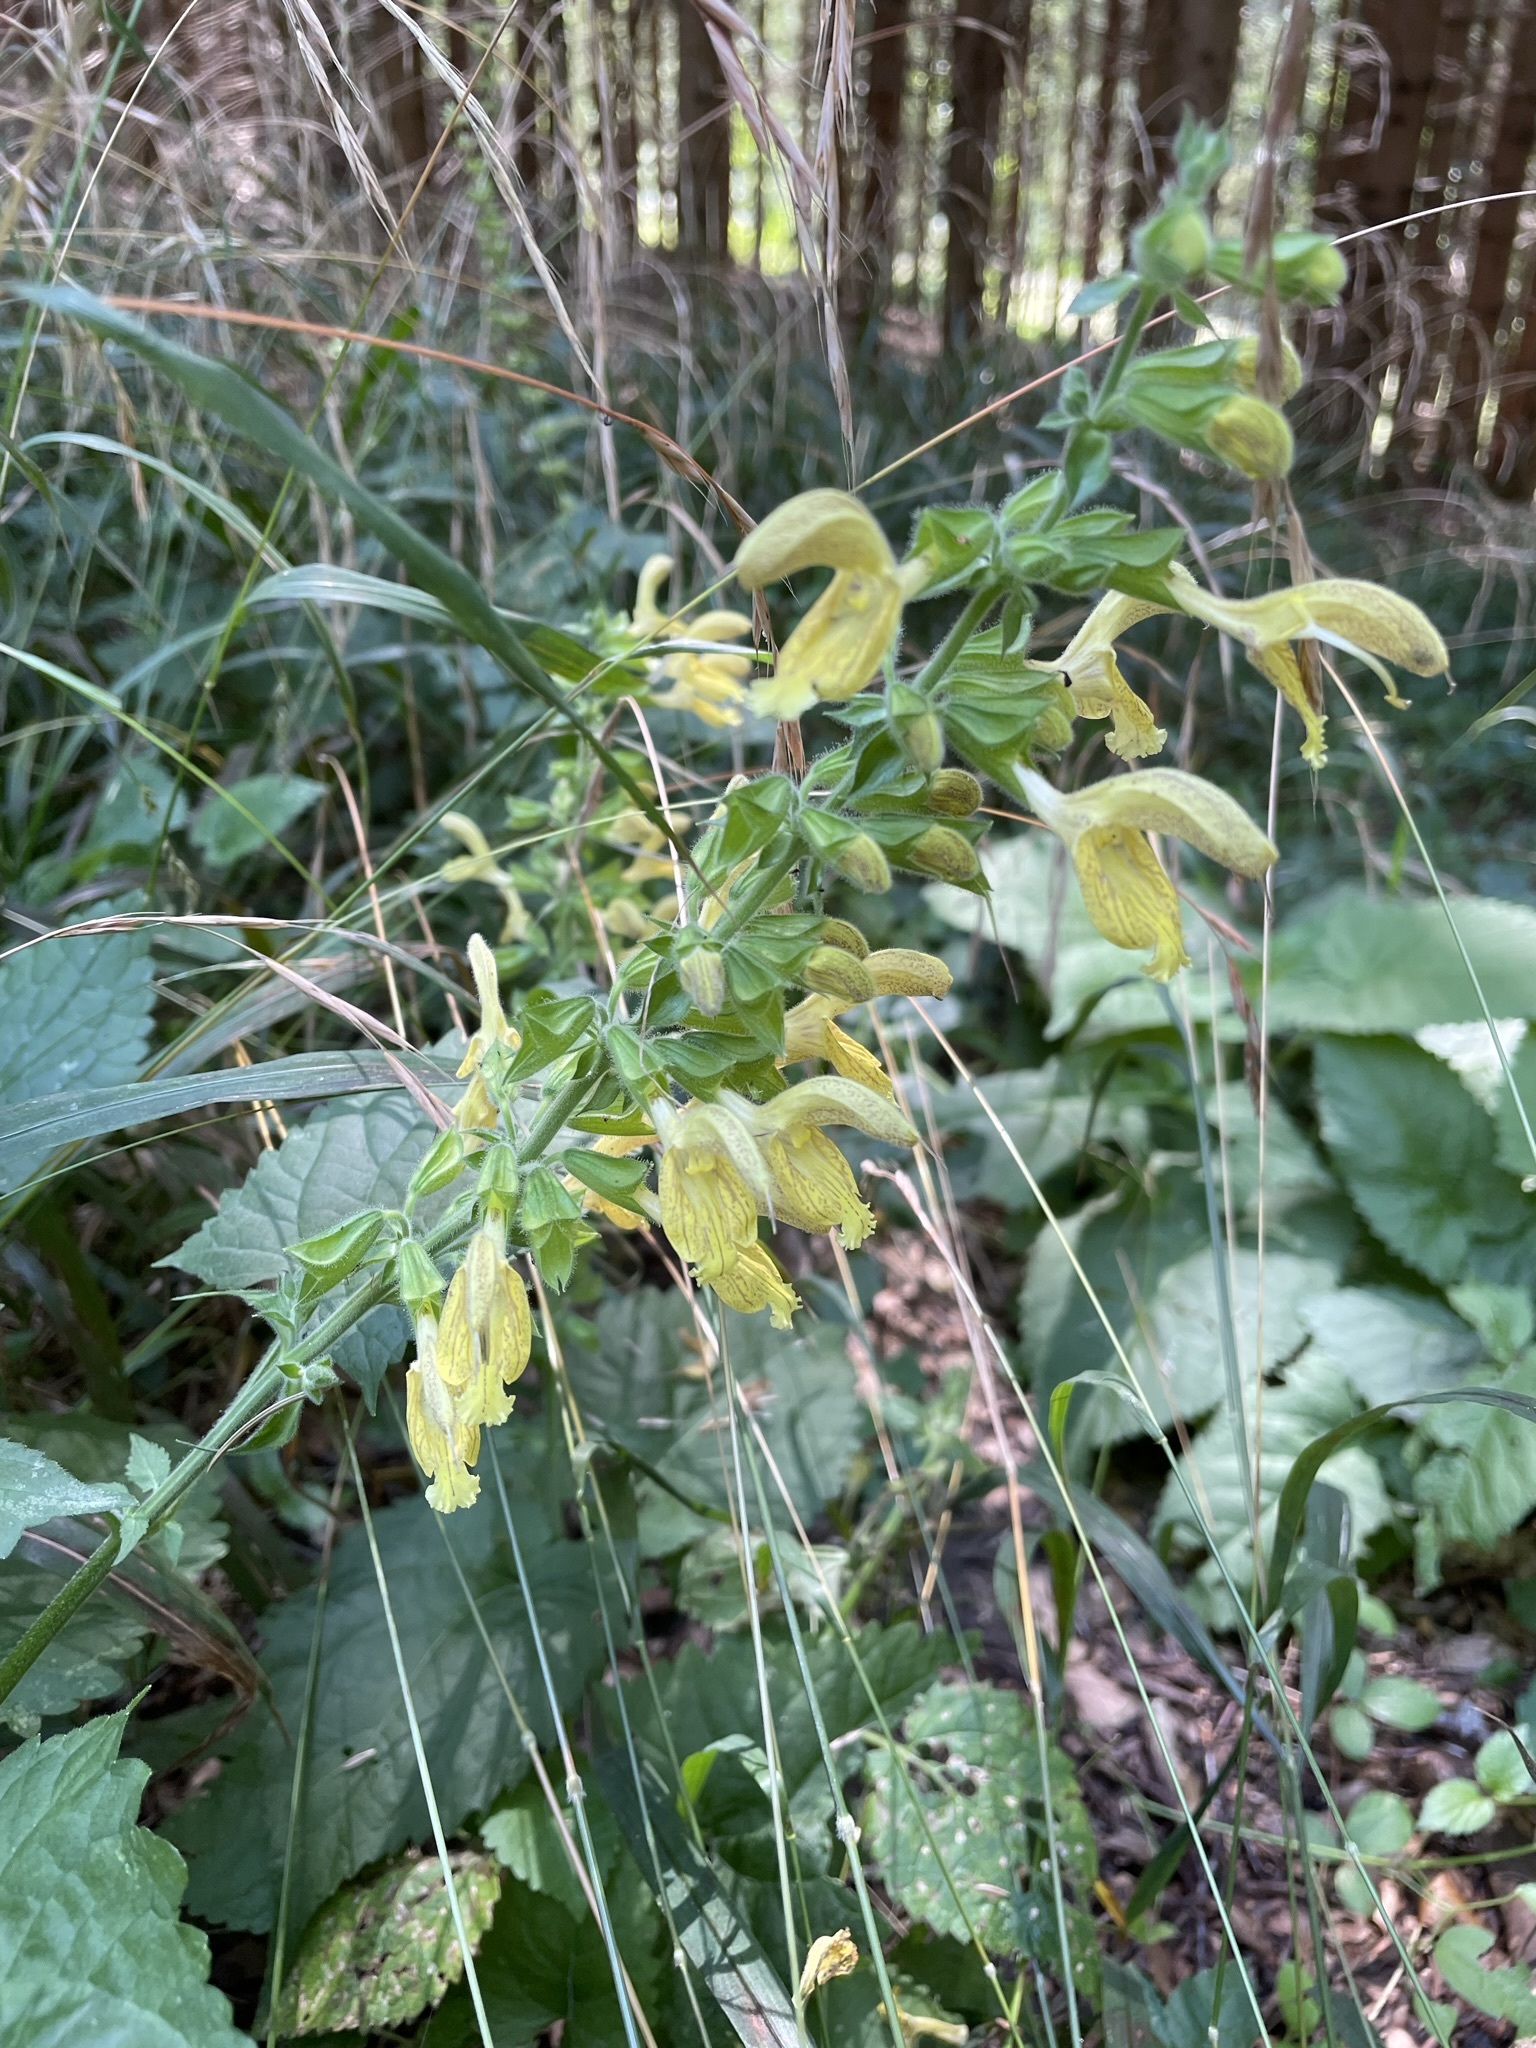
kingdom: Plantae
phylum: Tracheophyta
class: Magnoliopsida
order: Lamiales
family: Lamiaceae
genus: Salvia
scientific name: Salvia glutinosa
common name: Sticky clary
